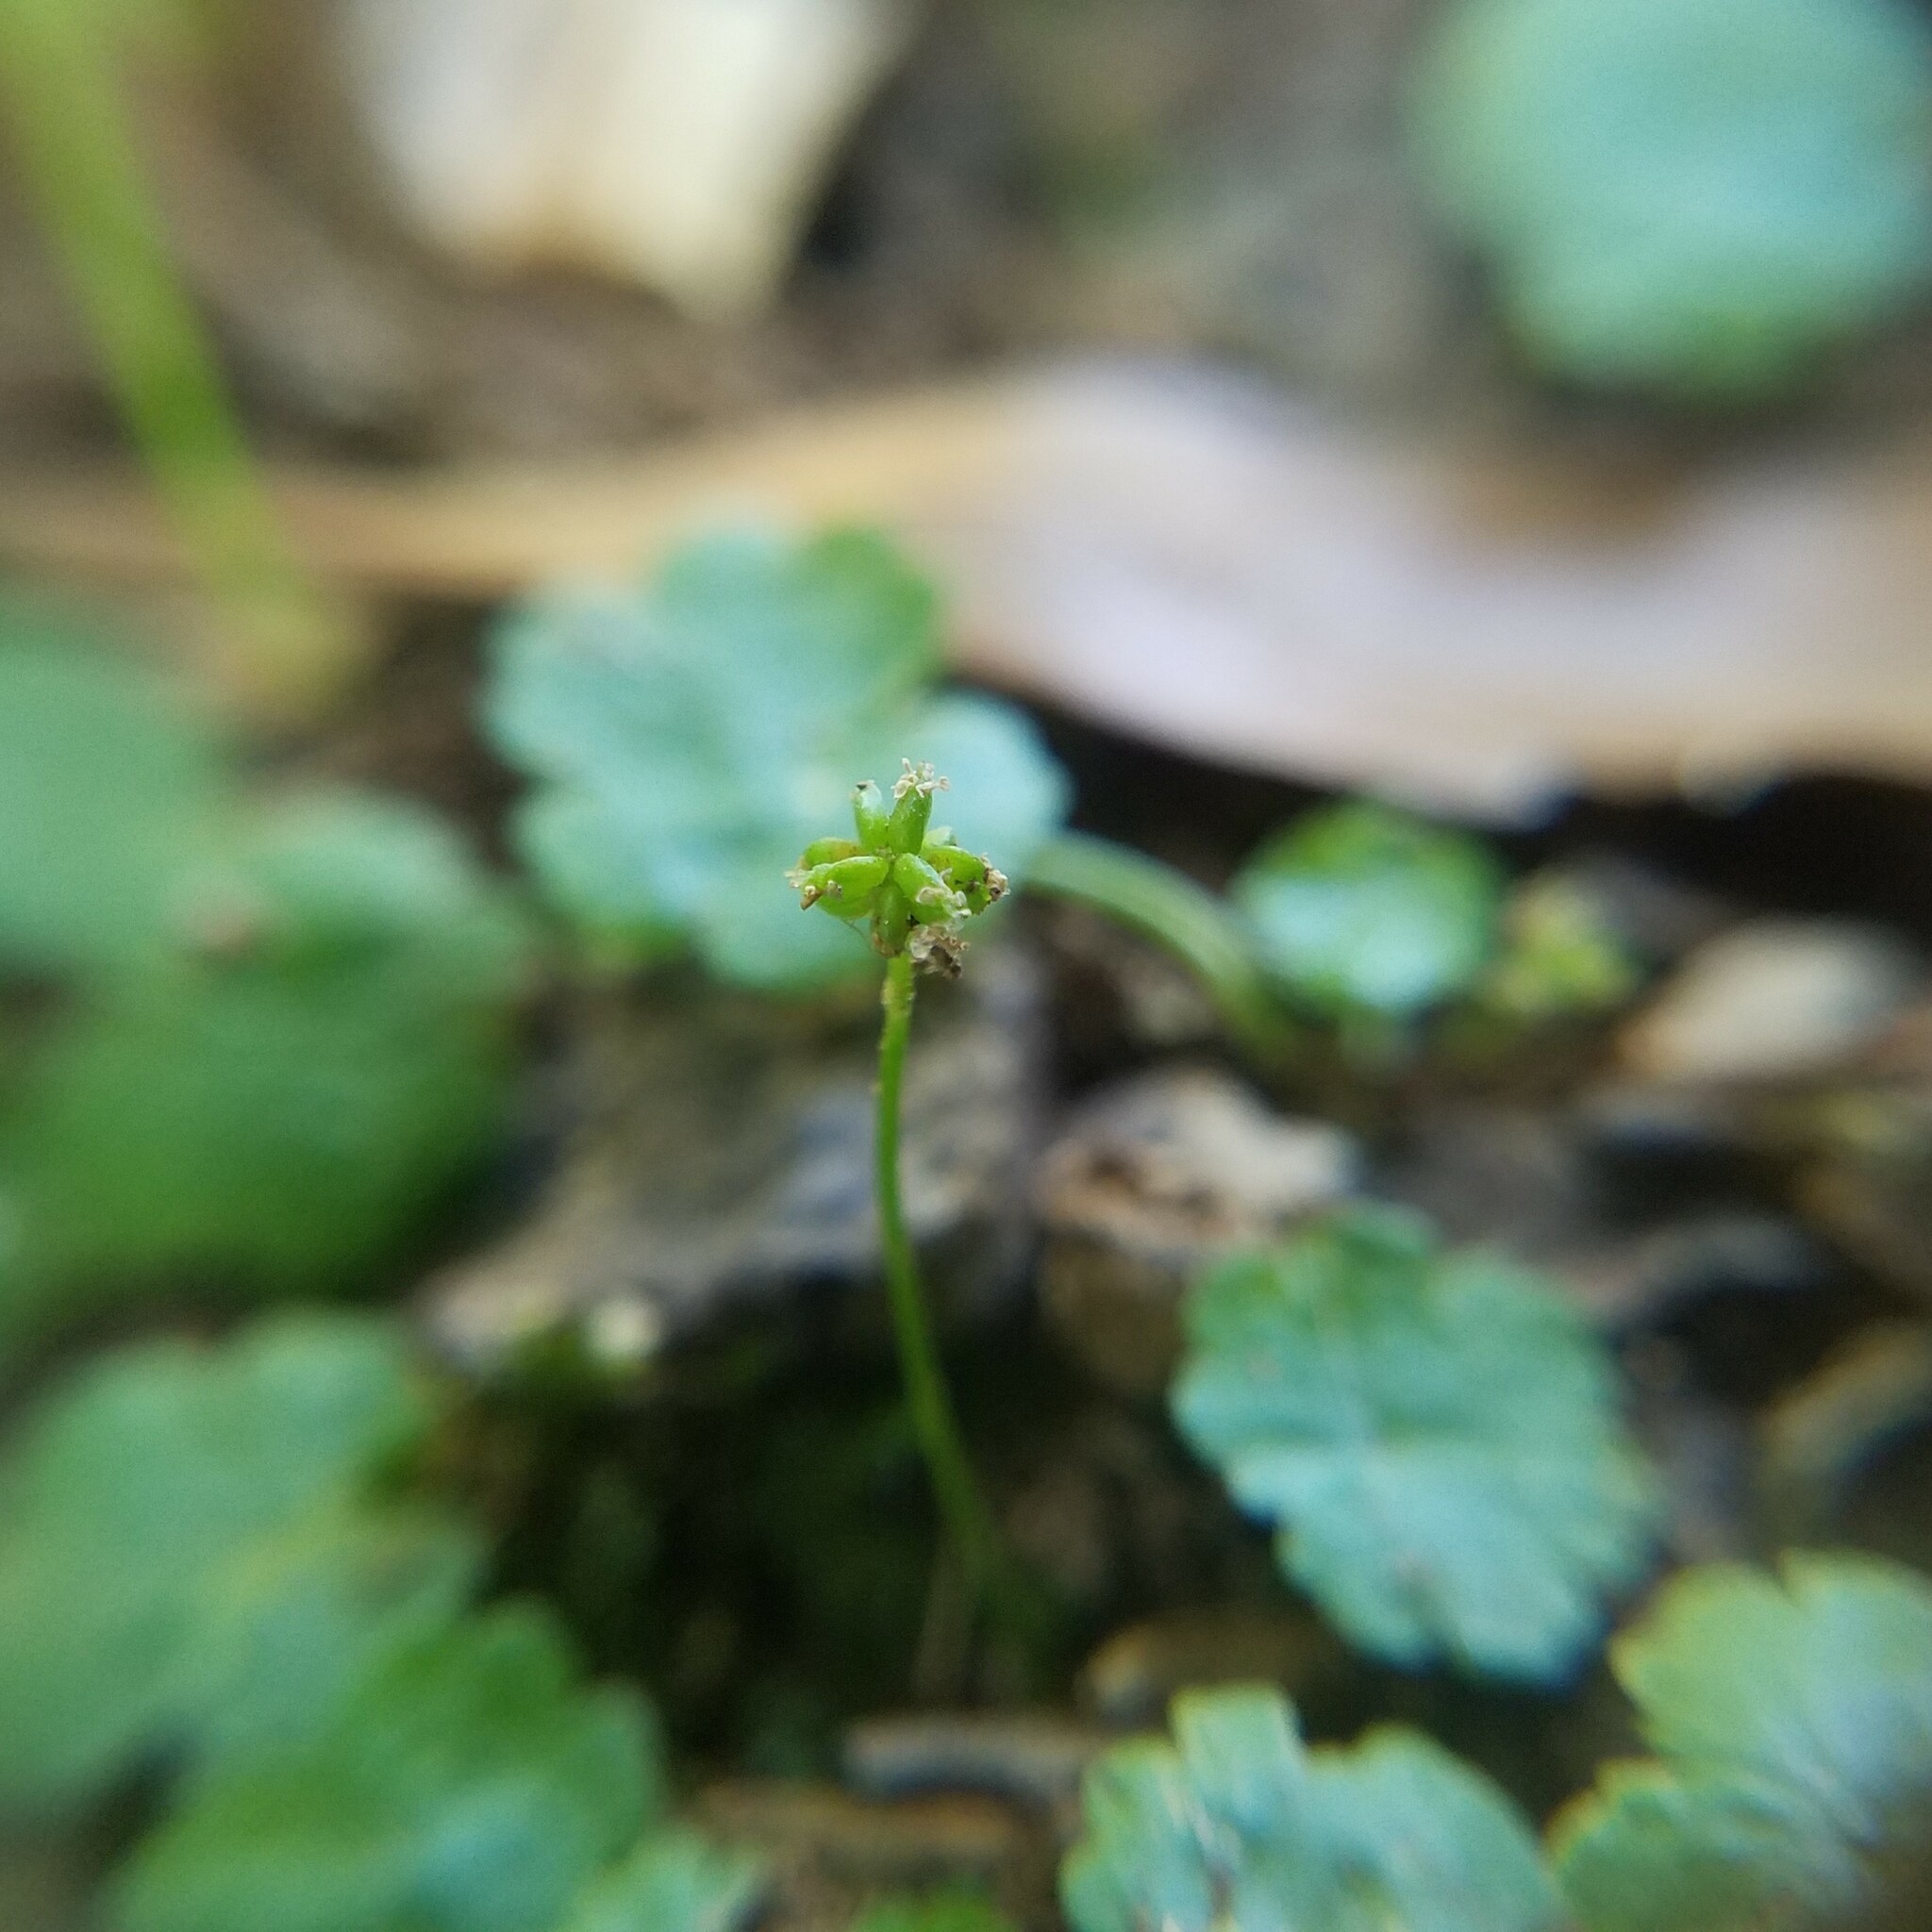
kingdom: Plantae
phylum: Tracheophyta
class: Magnoliopsida
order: Apiales
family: Araliaceae
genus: Hydrocotyle
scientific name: Hydrocotyle sibthorpioides
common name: Lawn marshpennywort
